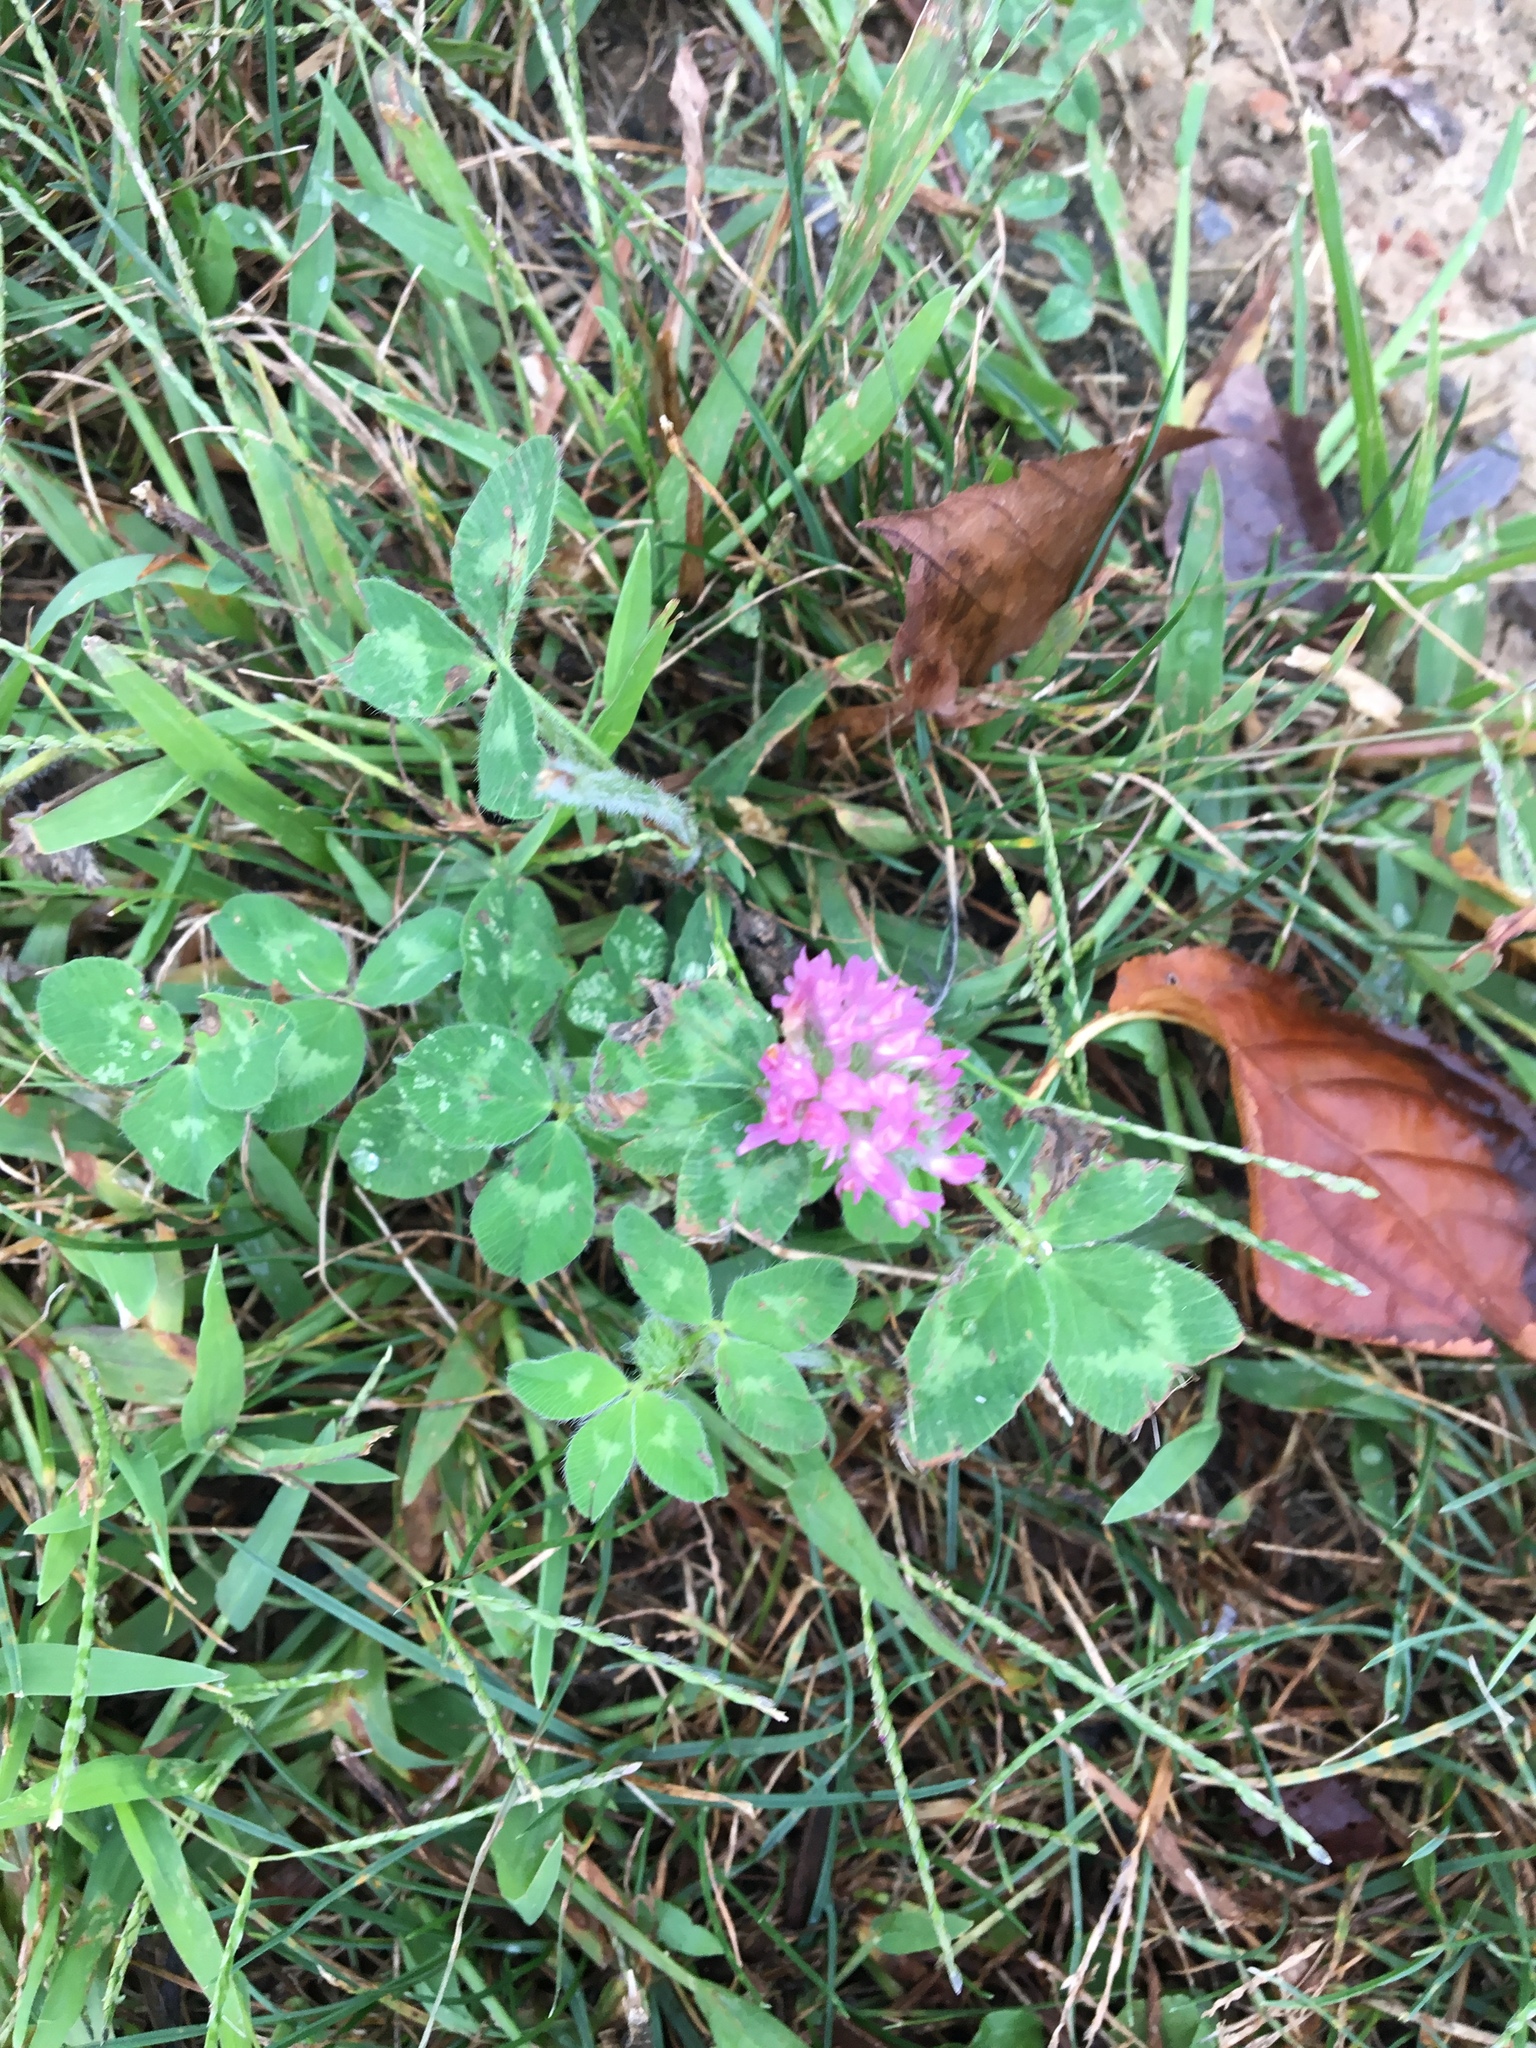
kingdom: Plantae
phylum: Tracheophyta
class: Magnoliopsida
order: Fabales
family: Fabaceae
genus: Trifolium
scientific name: Trifolium pratense
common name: Red clover
